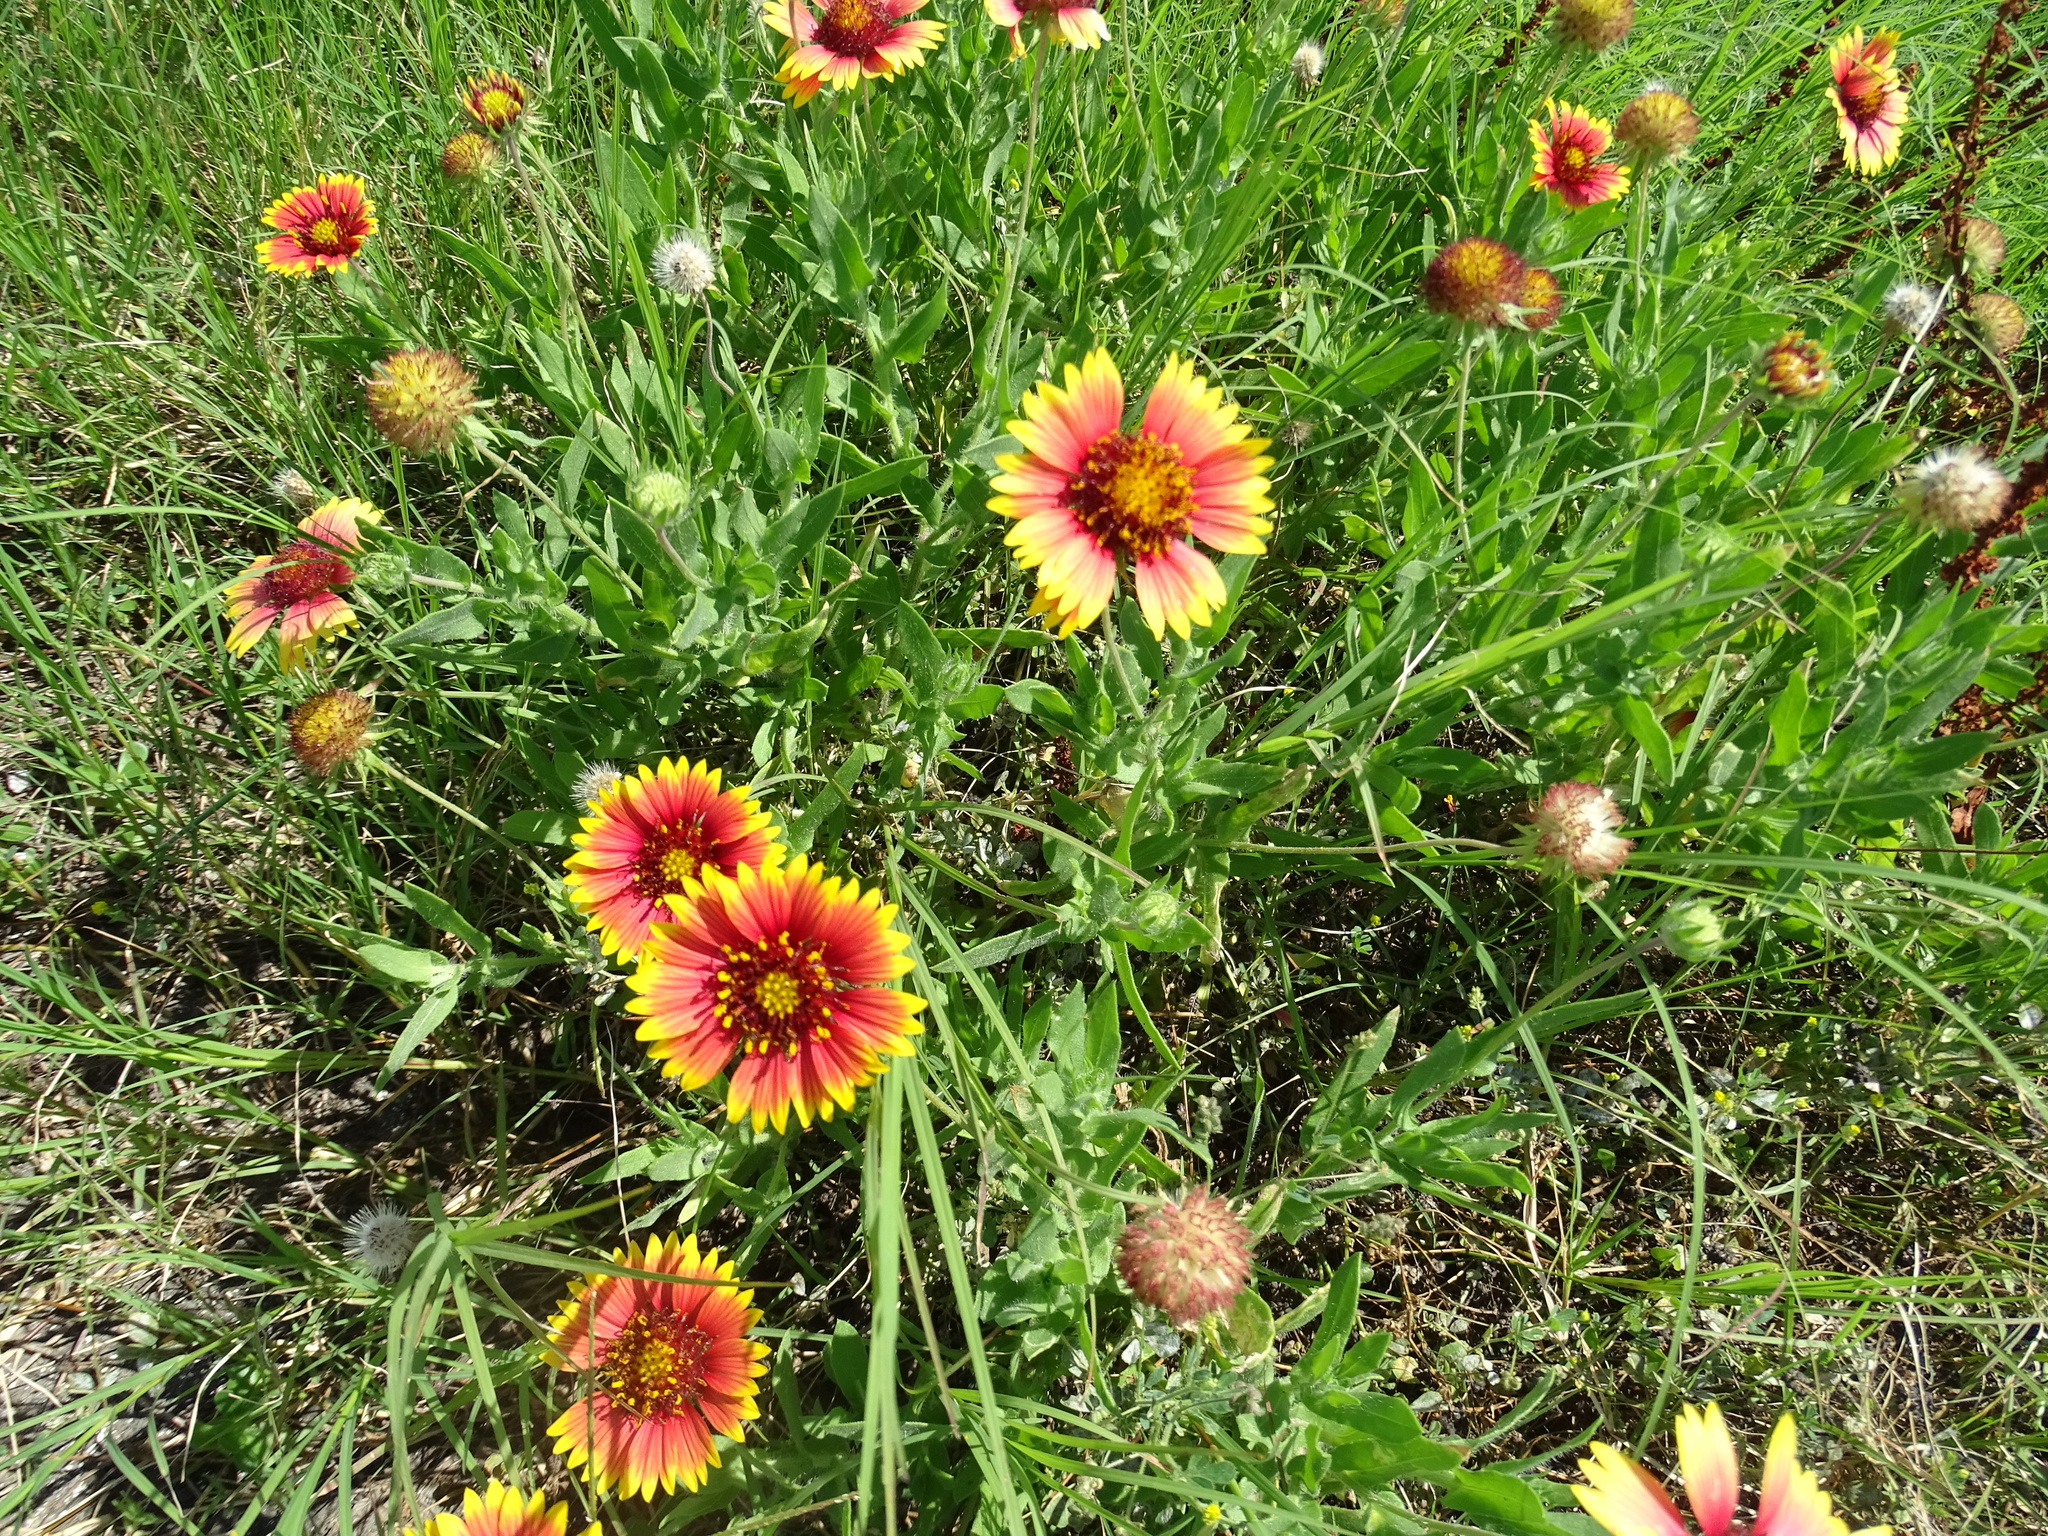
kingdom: Plantae
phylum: Tracheophyta
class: Magnoliopsida
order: Asterales
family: Asteraceae
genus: Gaillardia
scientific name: Gaillardia pulchella
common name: Firewheel
